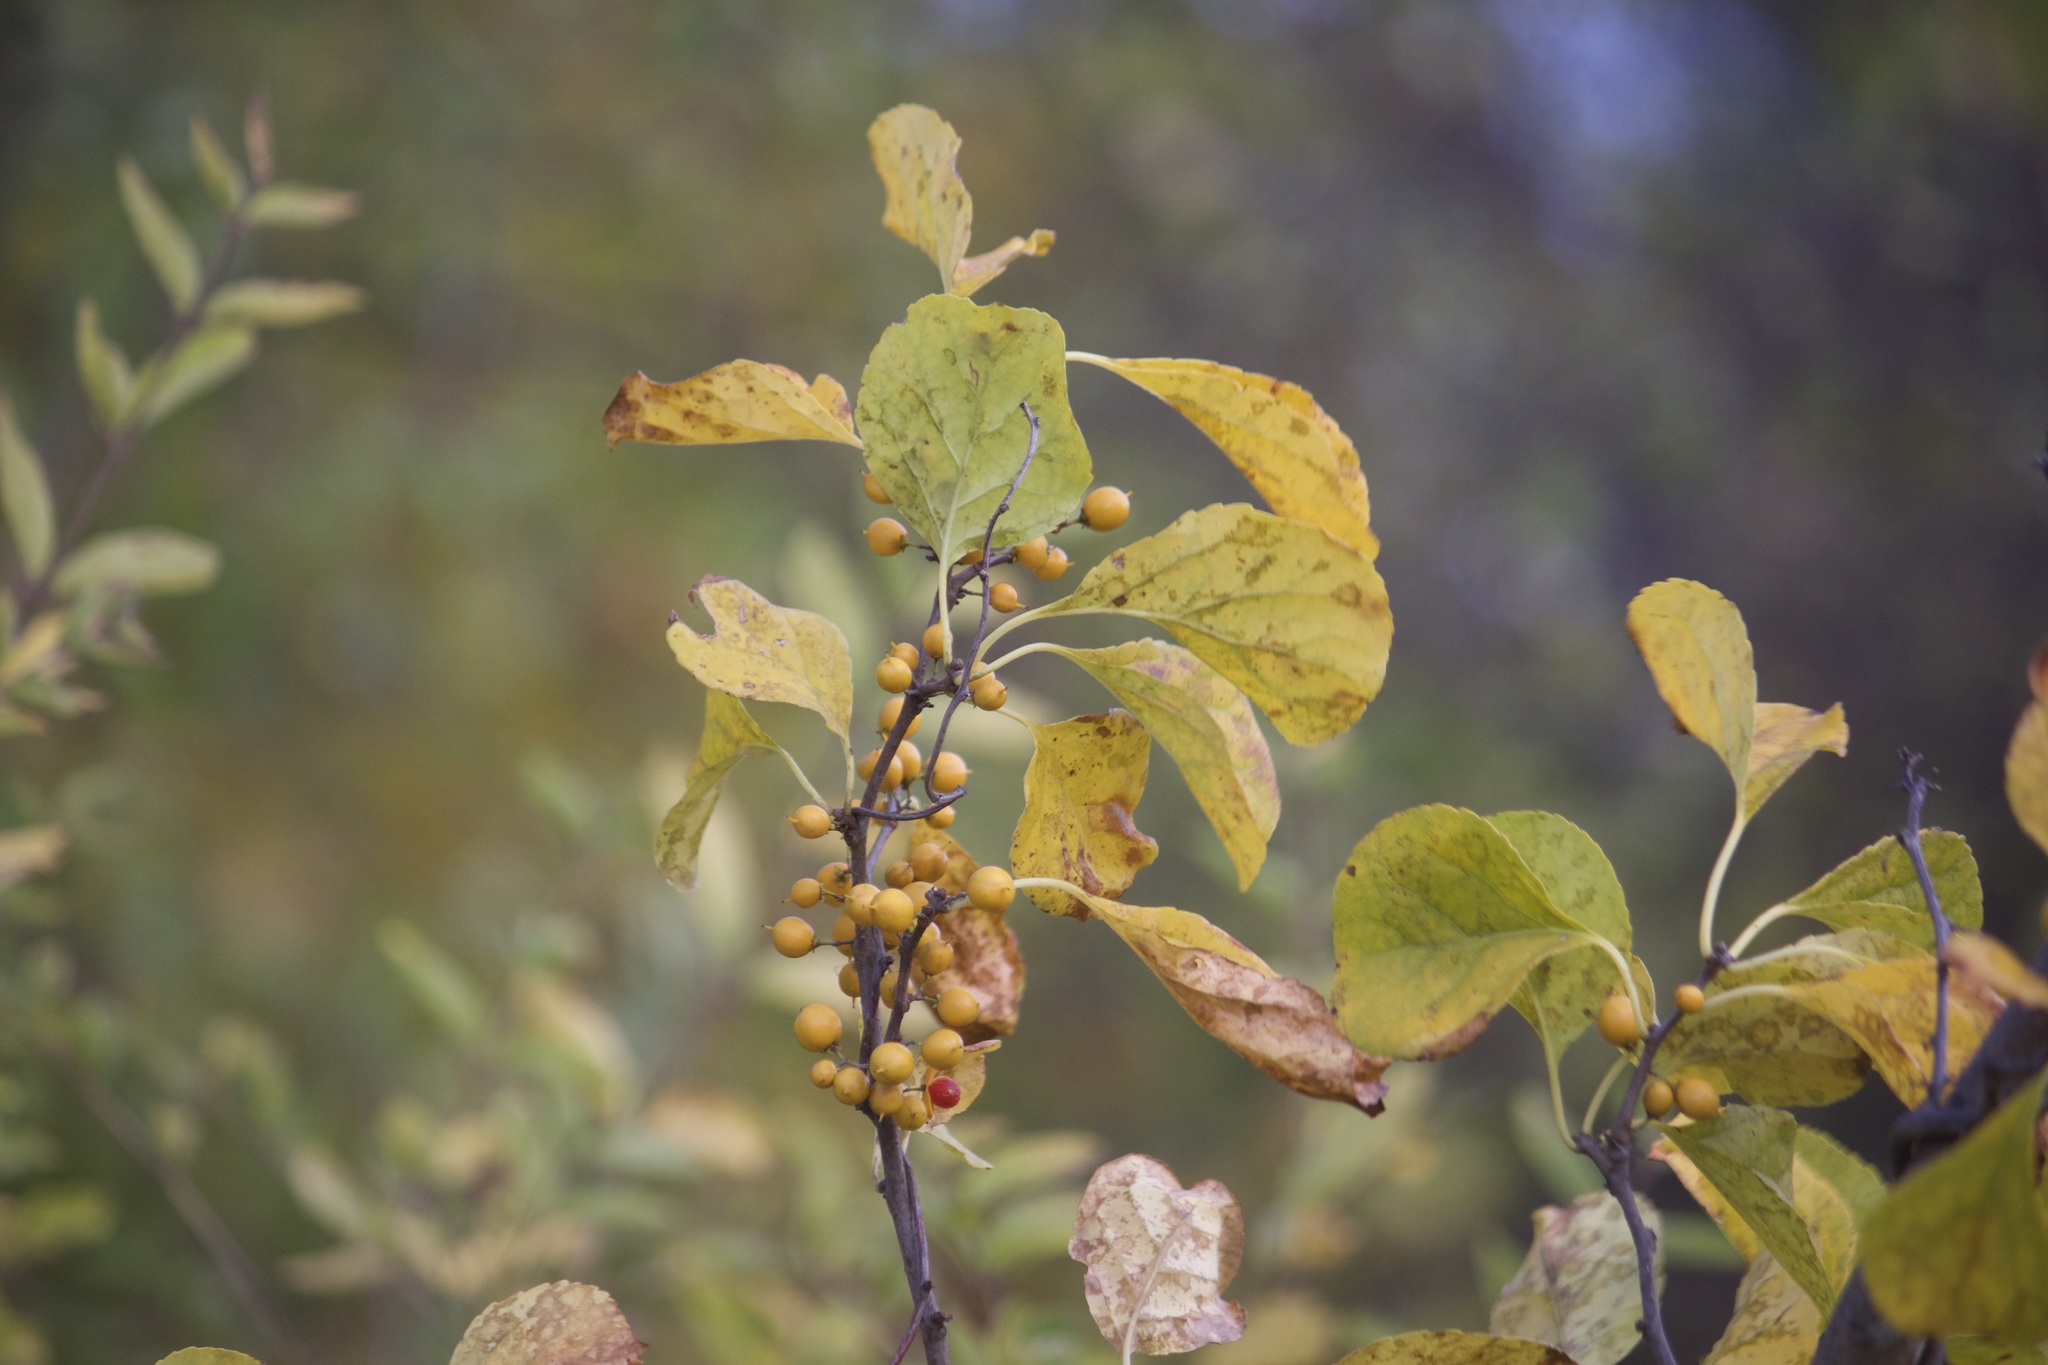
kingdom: Plantae
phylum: Tracheophyta
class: Magnoliopsida
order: Celastrales
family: Celastraceae
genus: Celastrus
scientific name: Celastrus orbiculatus
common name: Oriental bittersweet
